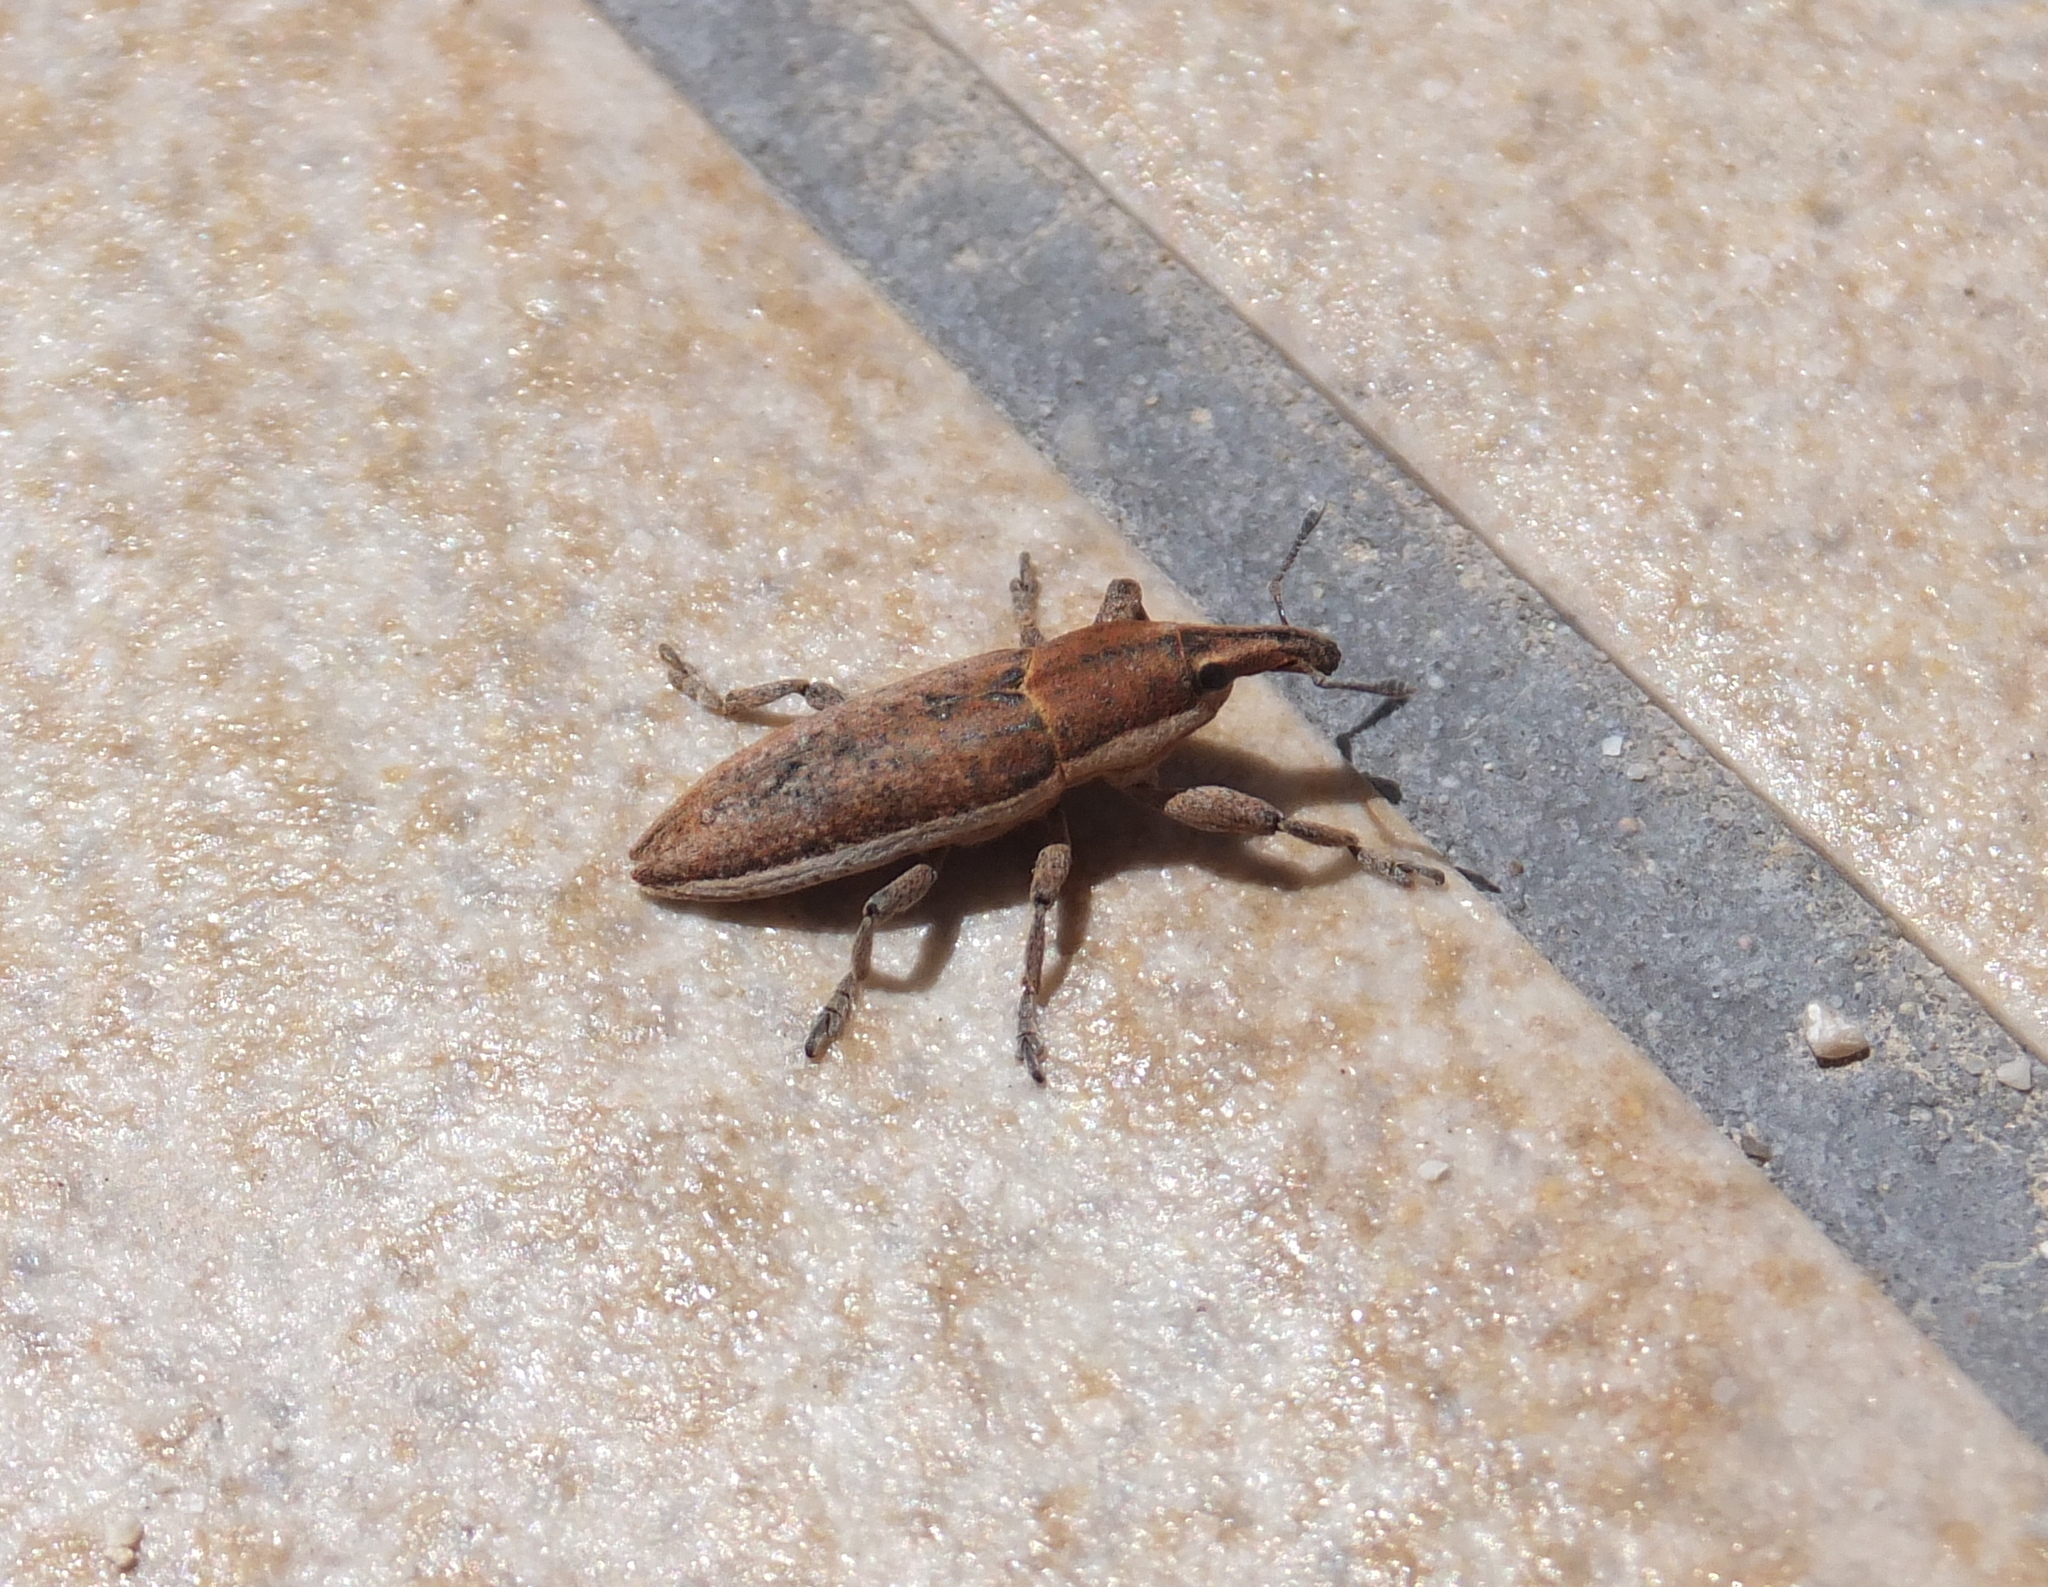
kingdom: Animalia
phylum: Arthropoda
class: Insecta
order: Coleoptera
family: Curculionidae
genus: Lixus
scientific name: Lixus ascanii
